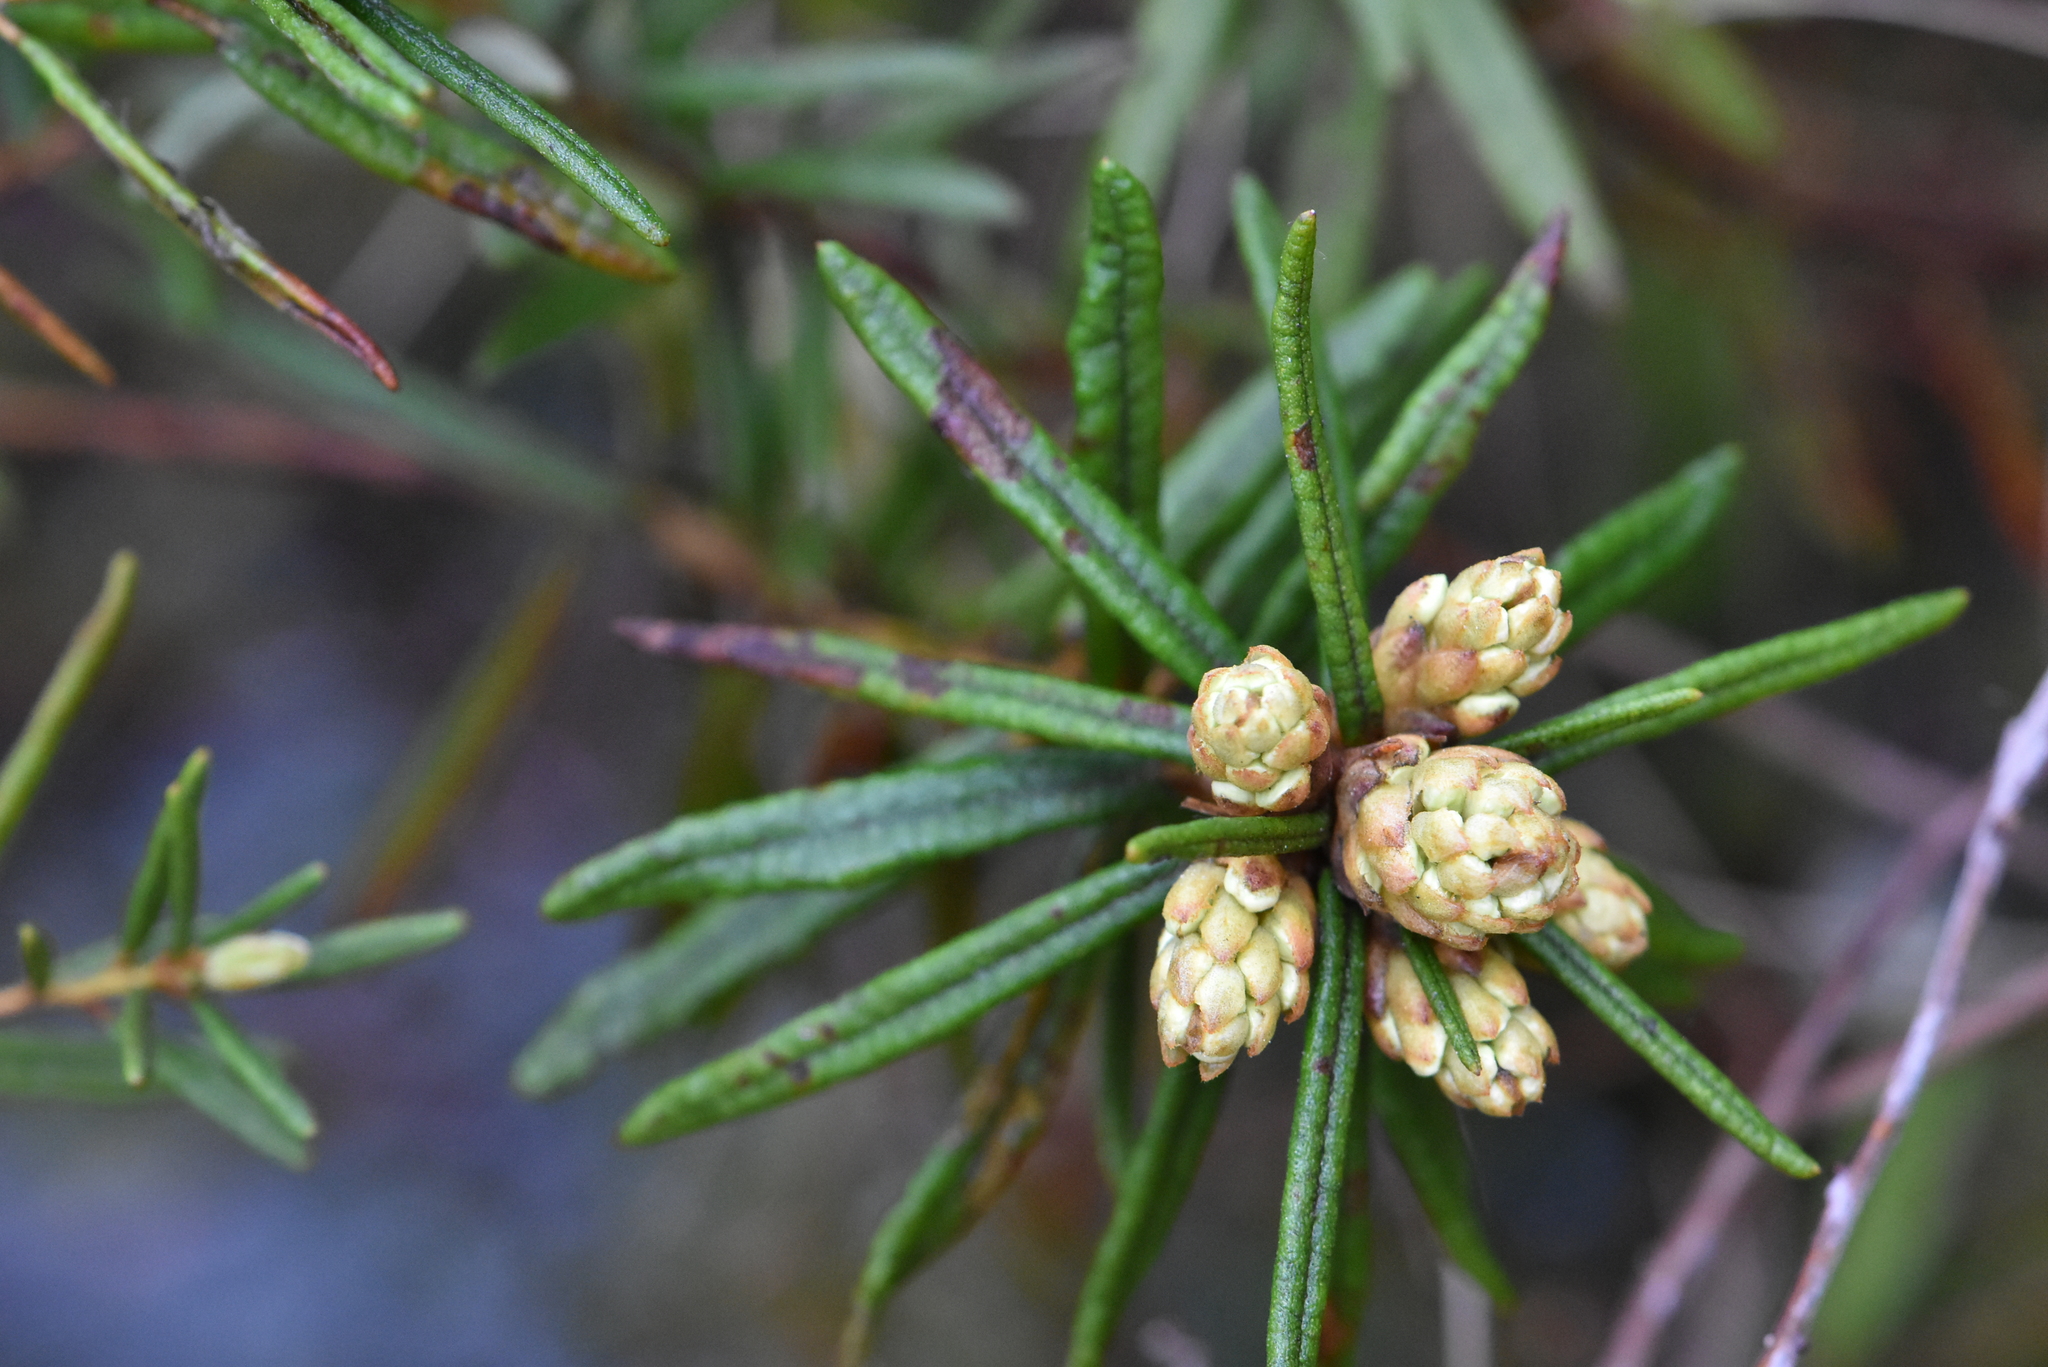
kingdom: Plantae
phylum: Tracheophyta
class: Magnoliopsida
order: Ericales
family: Ericaceae
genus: Rhododendron
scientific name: Rhododendron tomentosum
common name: Marsh labrador tea
